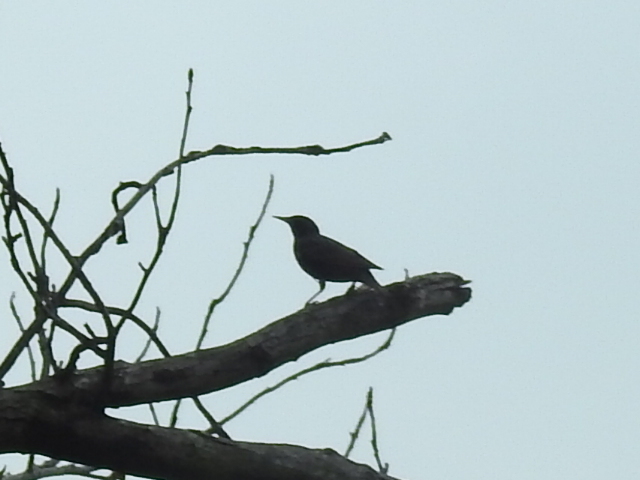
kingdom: Animalia
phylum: Chordata
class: Aves
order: Passeriformes
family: Sturnidae
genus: Sturnus
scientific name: Sturnus vulgaris
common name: Common starling
